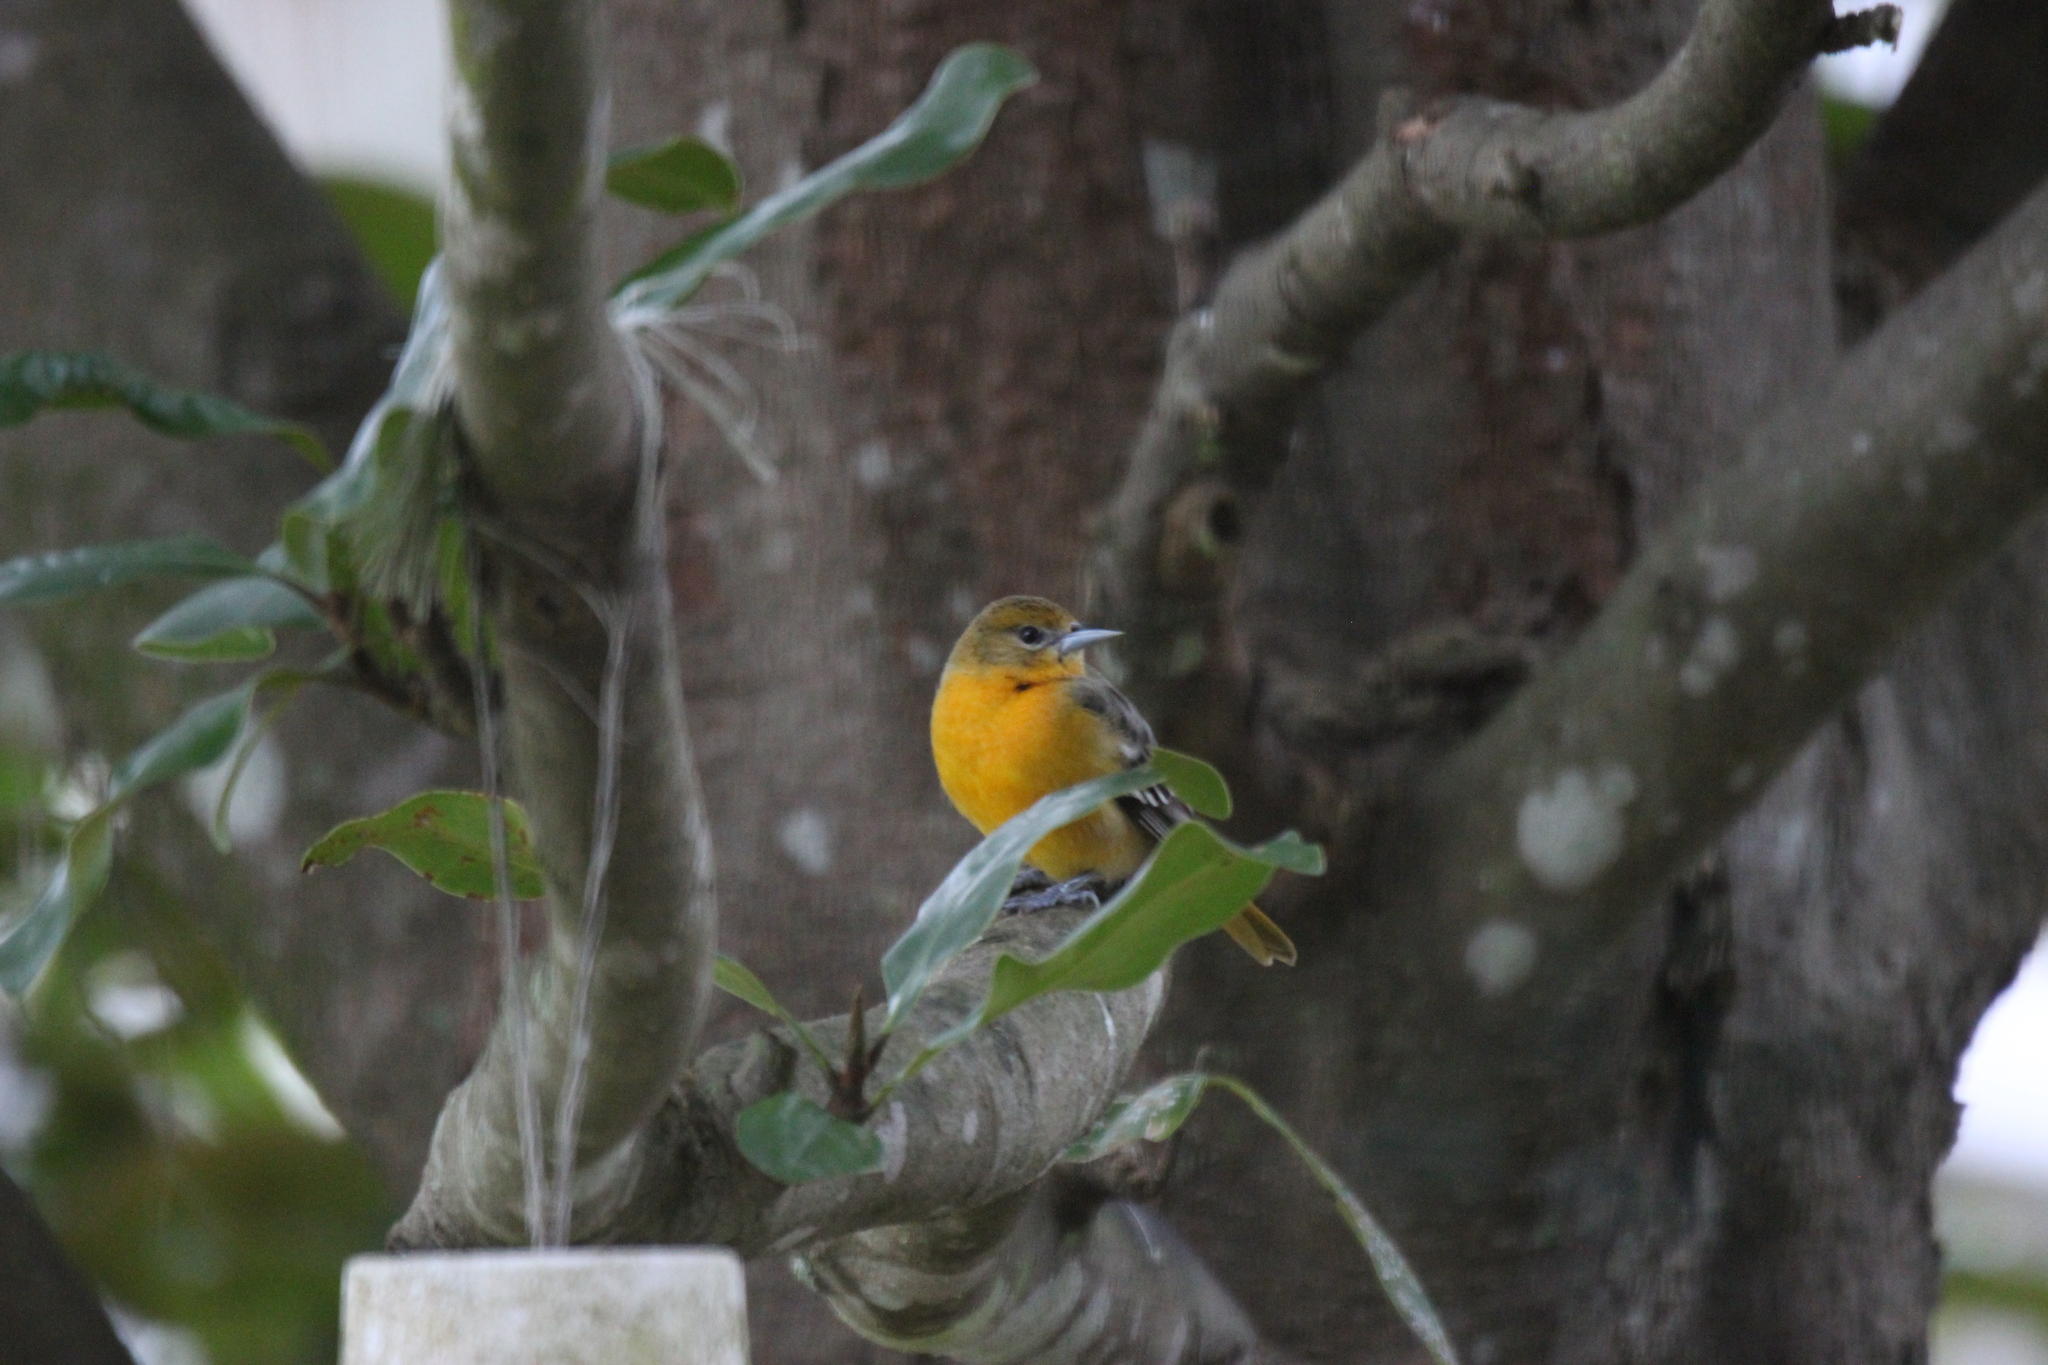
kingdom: Animalia
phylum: Chordata
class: Aves
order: Passeriformes
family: Icteridae
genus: Icterus
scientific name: Icterus galbula
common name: Baltimore oriole
